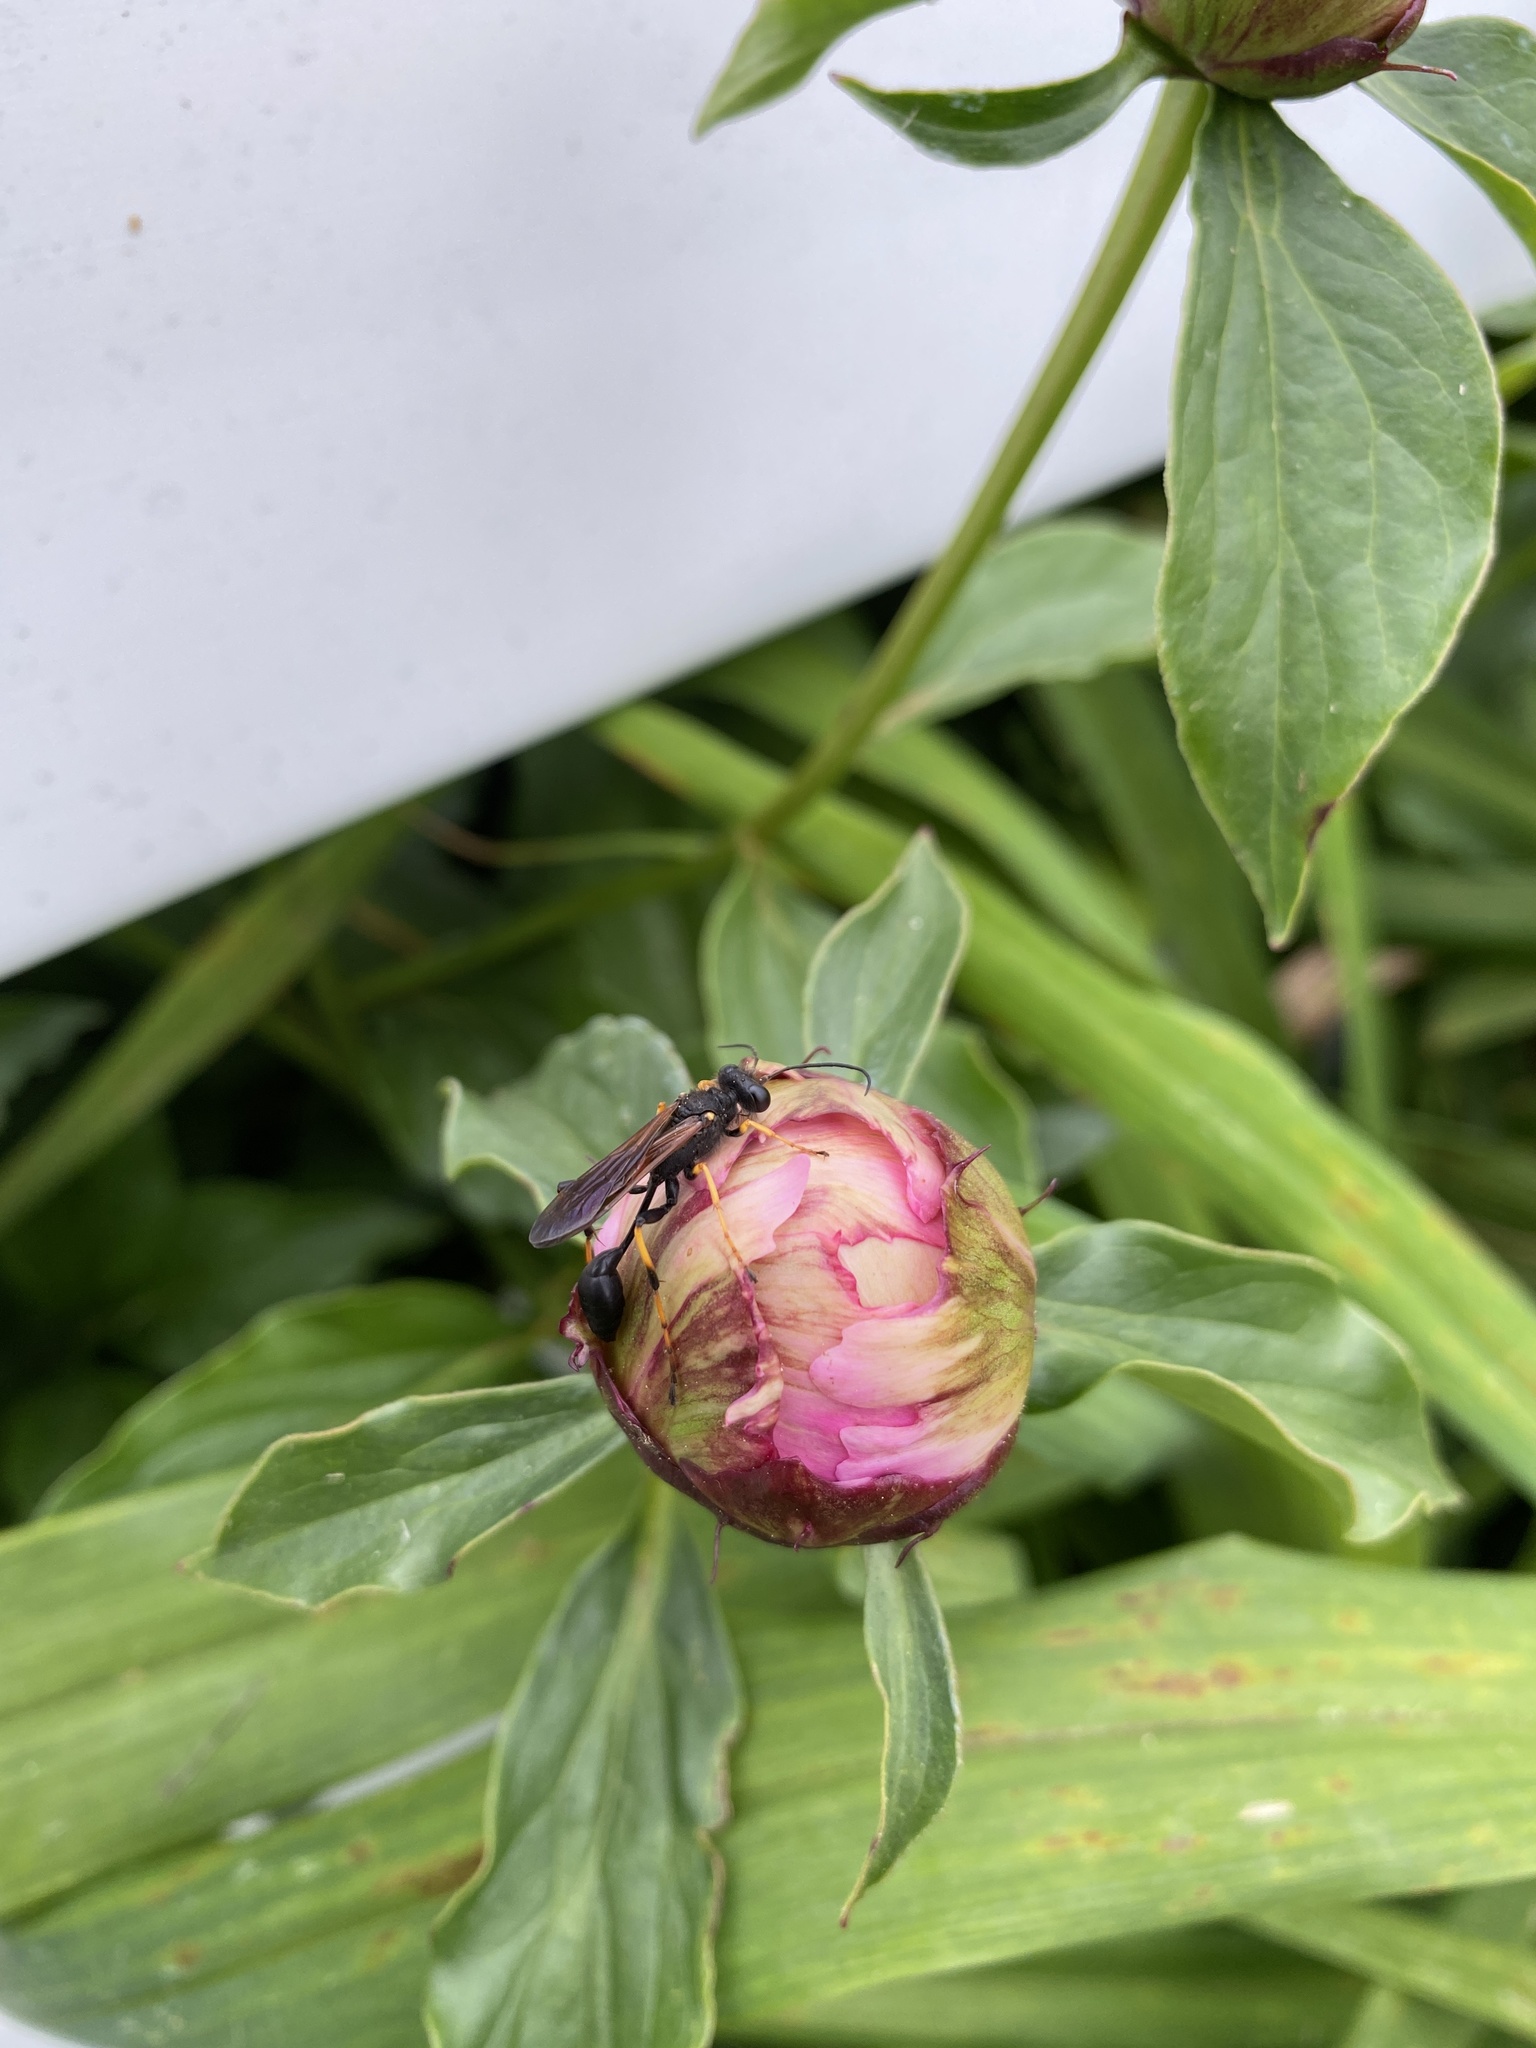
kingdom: Animalia
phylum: Arthropoda
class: Insecta
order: Hymenoptera
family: Sphecidae
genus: Sceliphron
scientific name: Sceliphron caementarium
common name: Mud dauber
